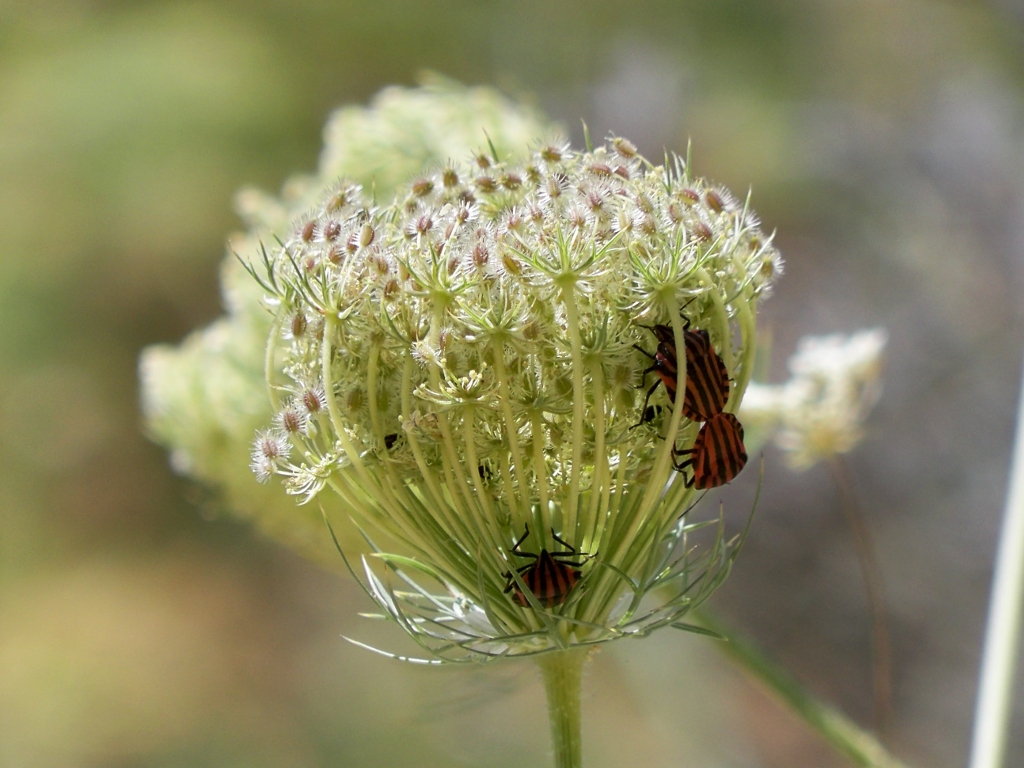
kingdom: Animalia
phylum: Arthropoda
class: Insecta
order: Hemiptera
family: Pentatomidae
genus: Graphosoma
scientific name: Graphosoma italicum
